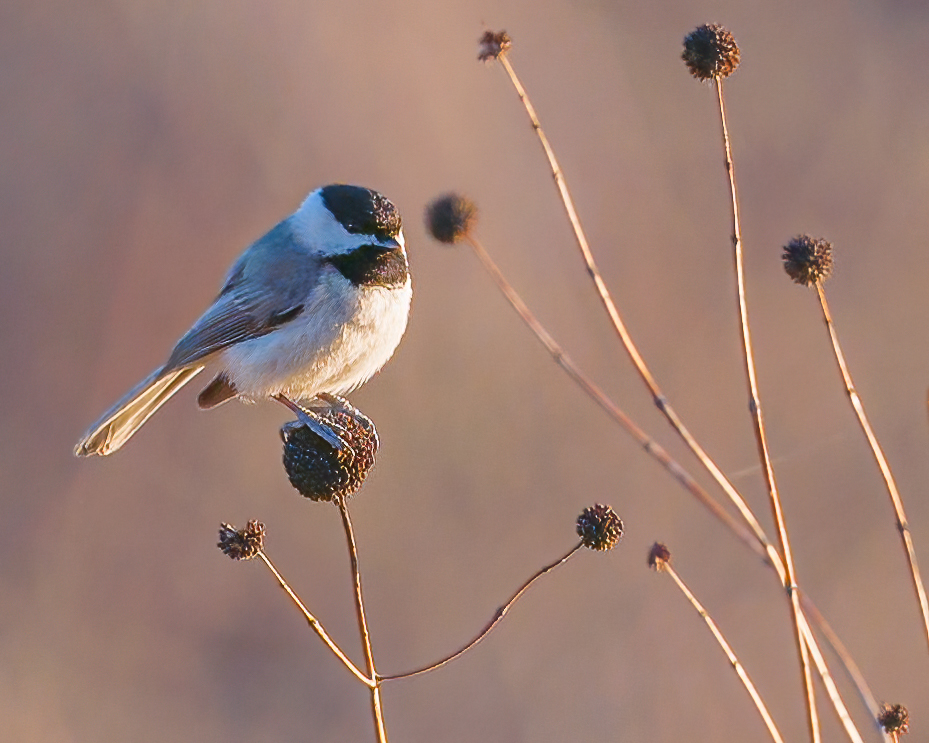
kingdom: Animalia
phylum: Chordata
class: Aves
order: Passeriformes
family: Paridae
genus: Poecile
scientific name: Poecile carolinensis
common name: Carolina chickadee
